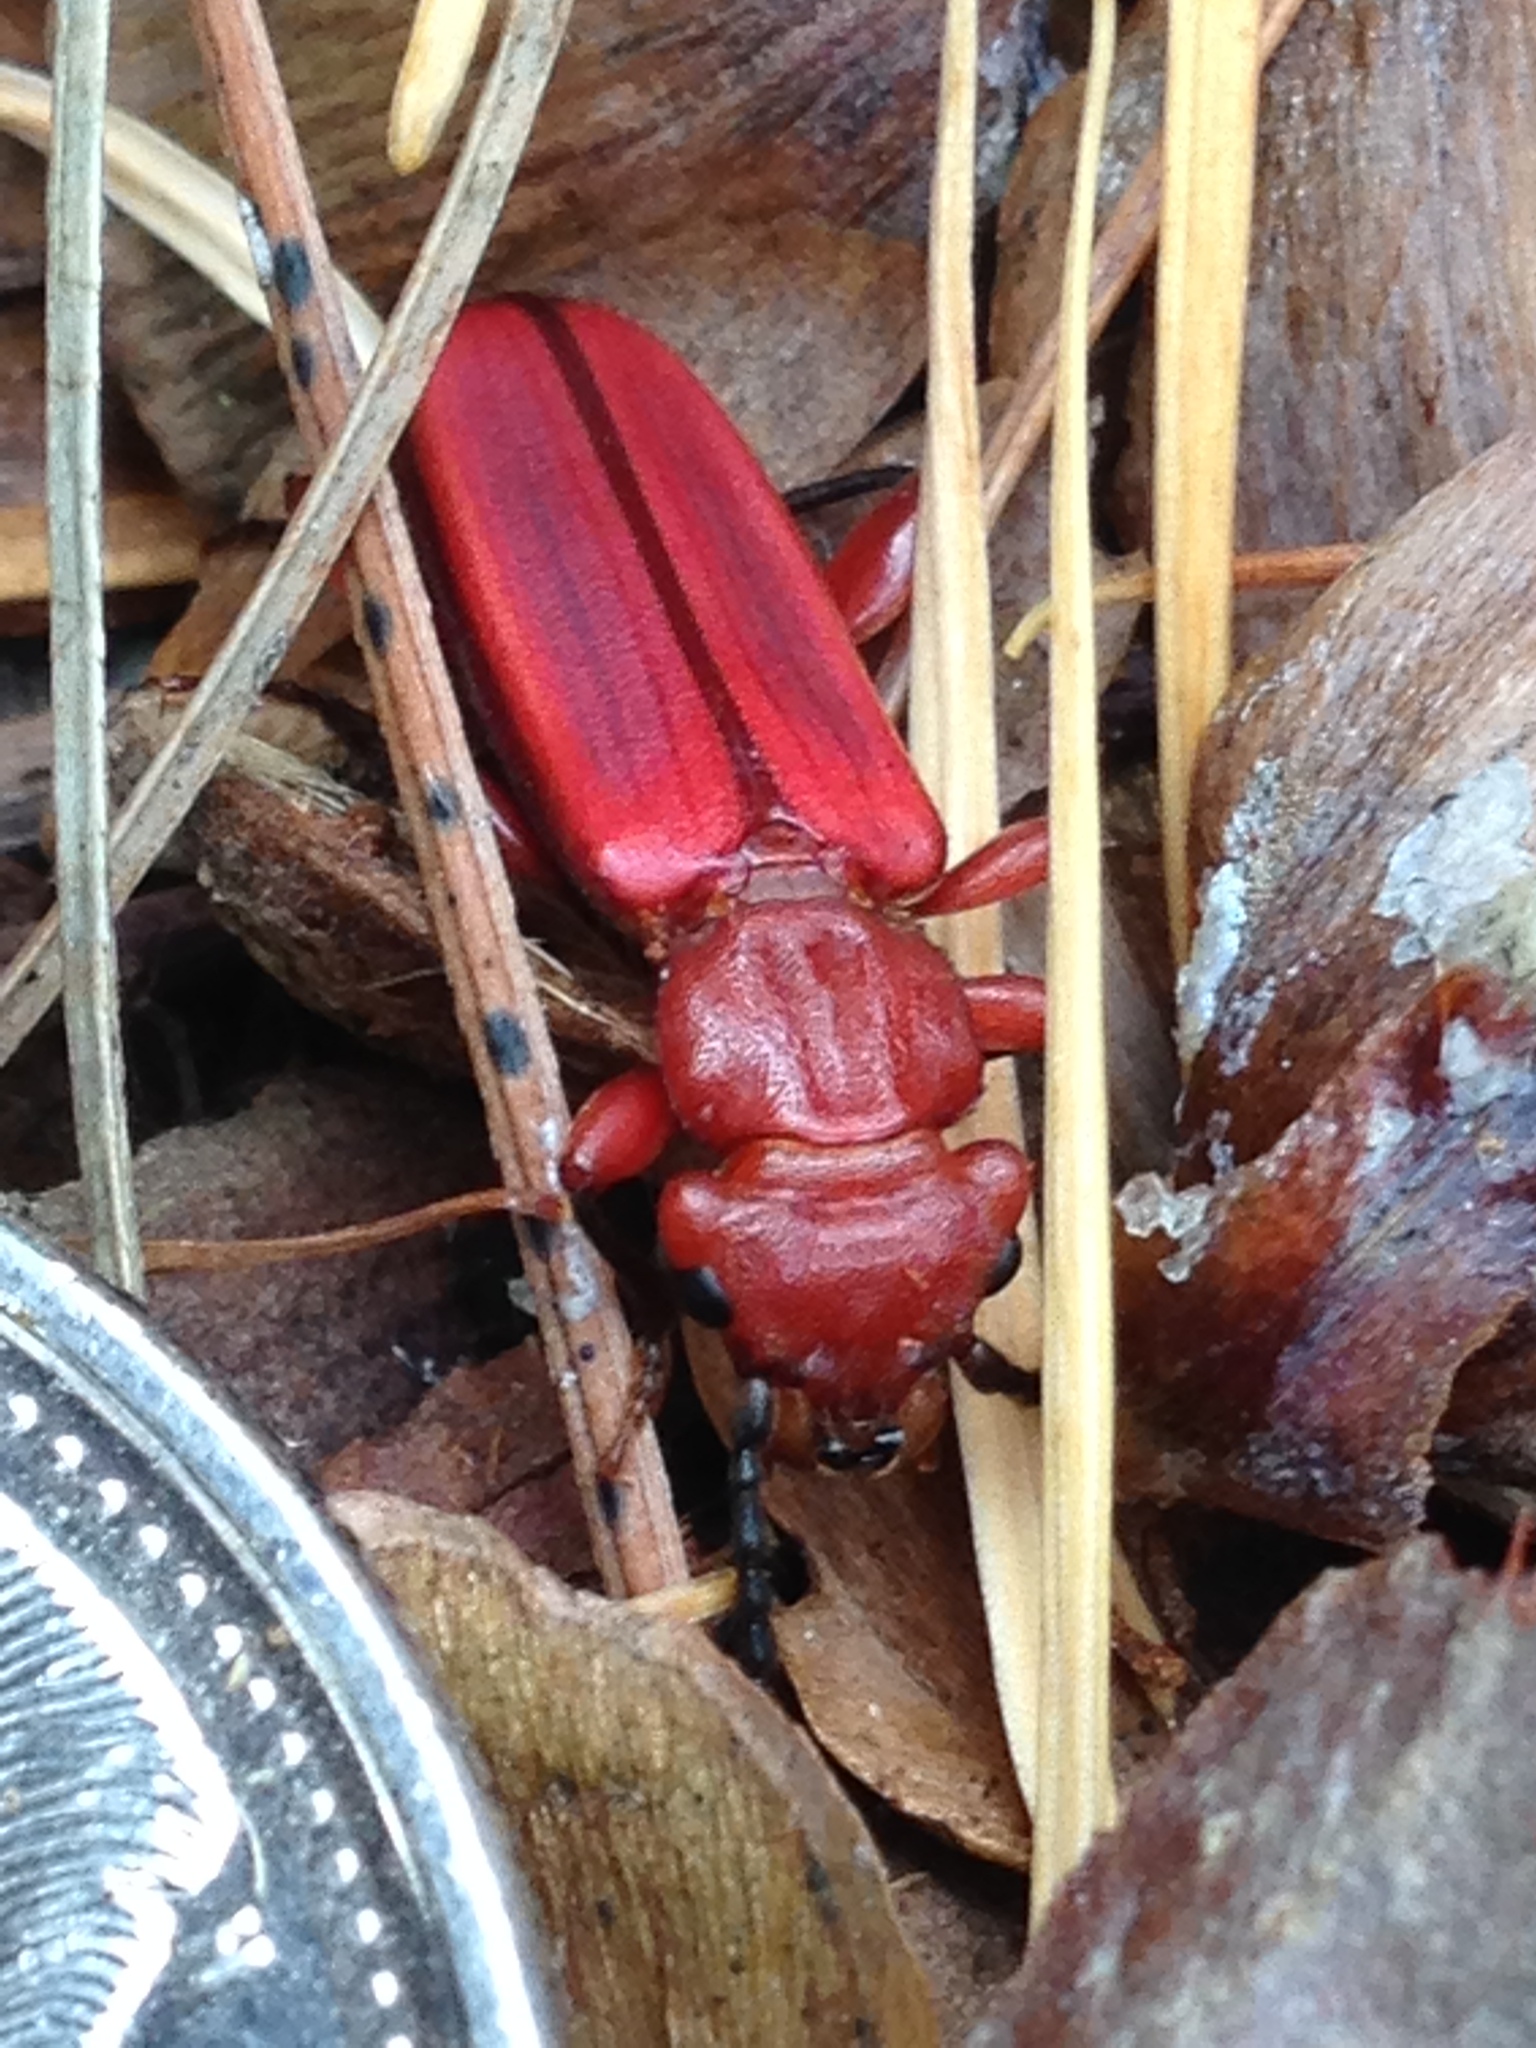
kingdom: Animalia
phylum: Arthropoda
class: Insecta
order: Coleoptera
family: Cucujidae
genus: Cucujus
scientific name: Cucujus clavipes
